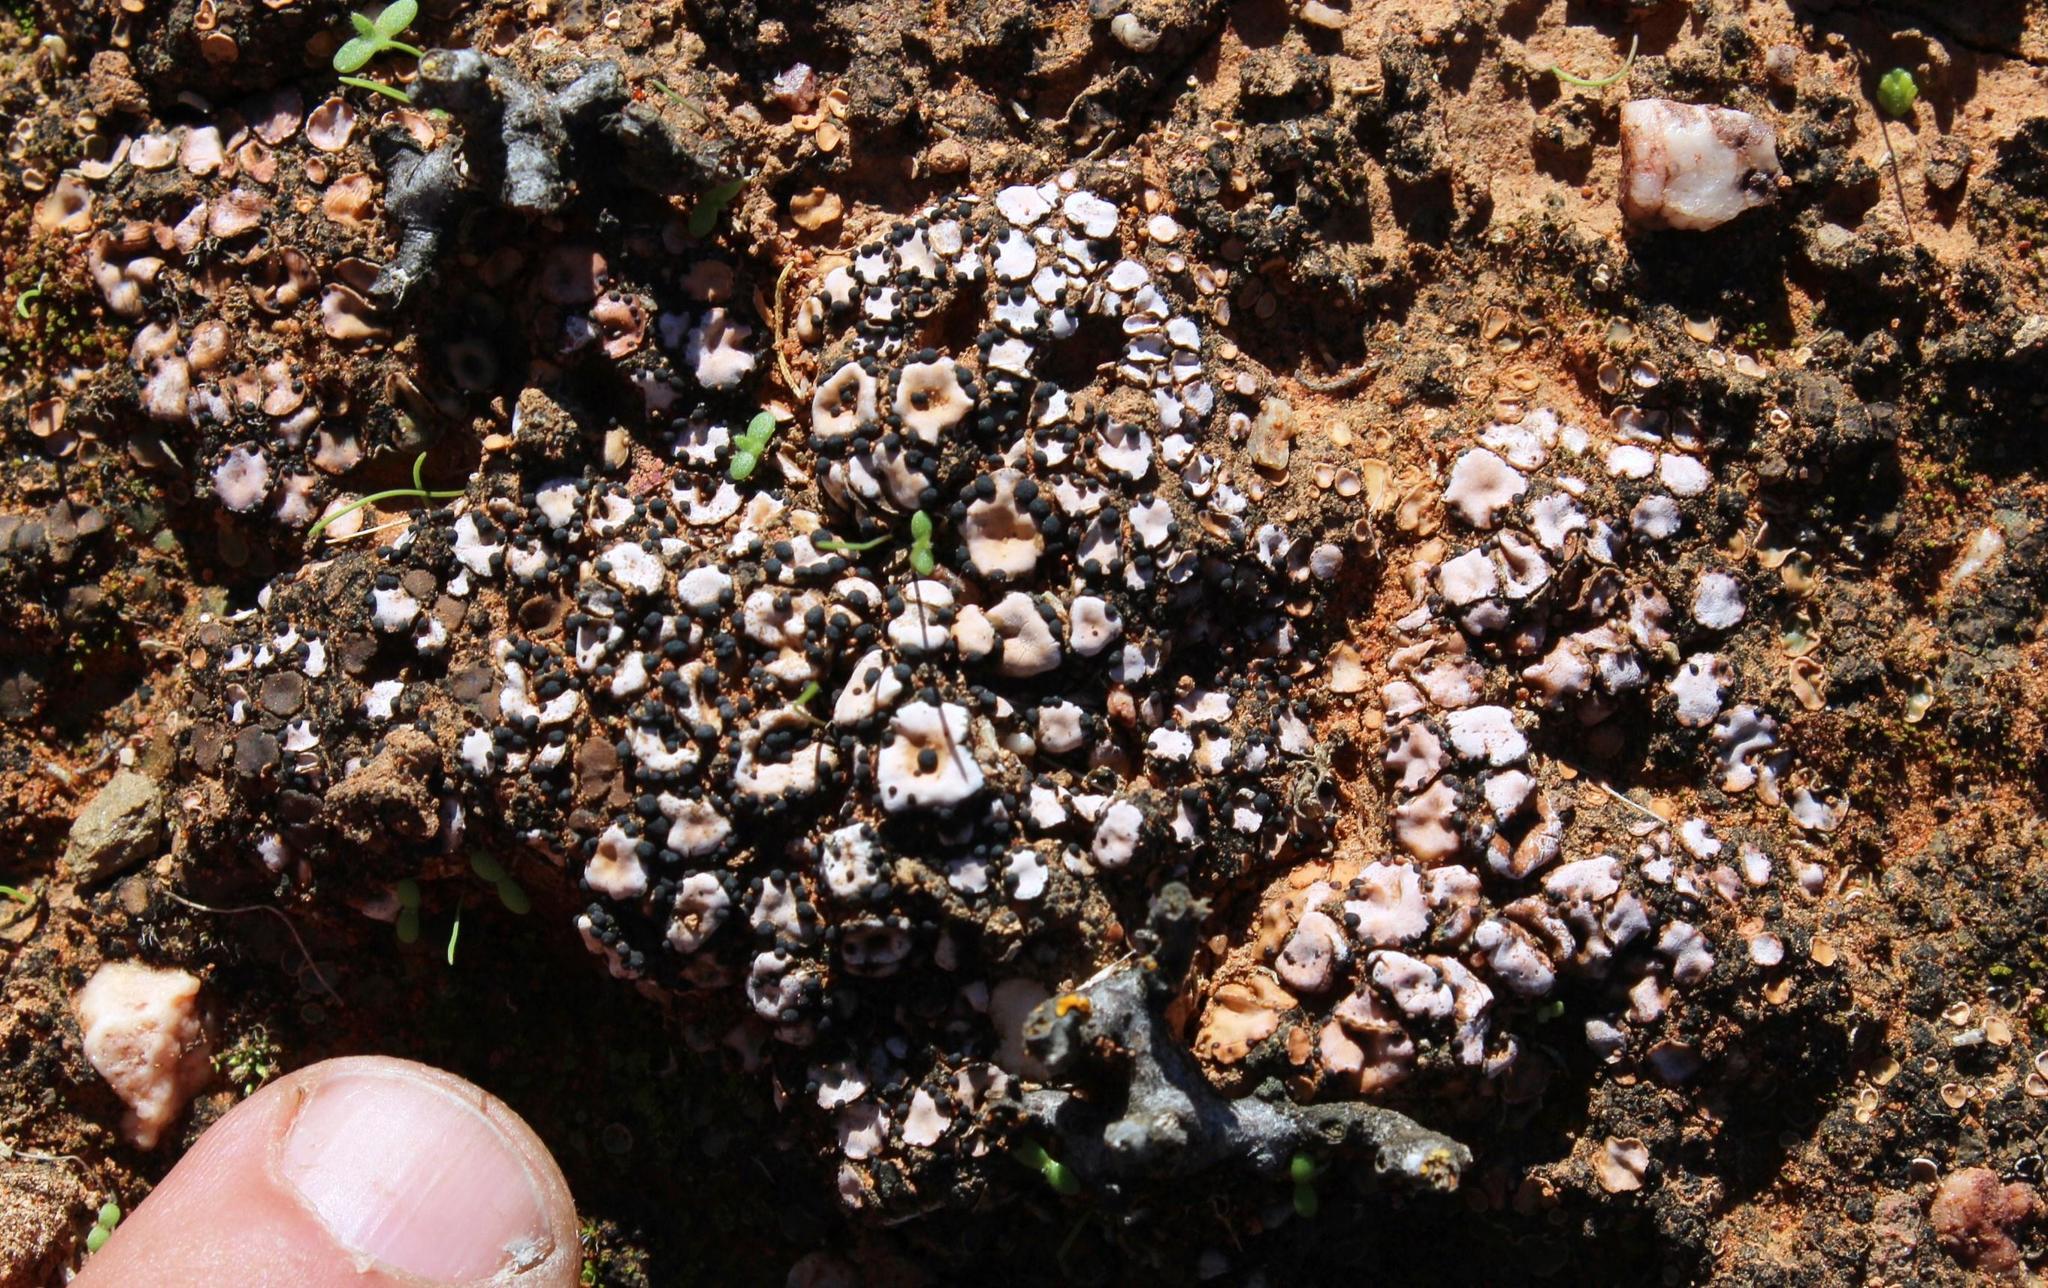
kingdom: Fungi
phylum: Ascomycota
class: Lecanoromycetes
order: Lecanorales
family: Psoraceae
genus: Psora
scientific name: Psora crenata
